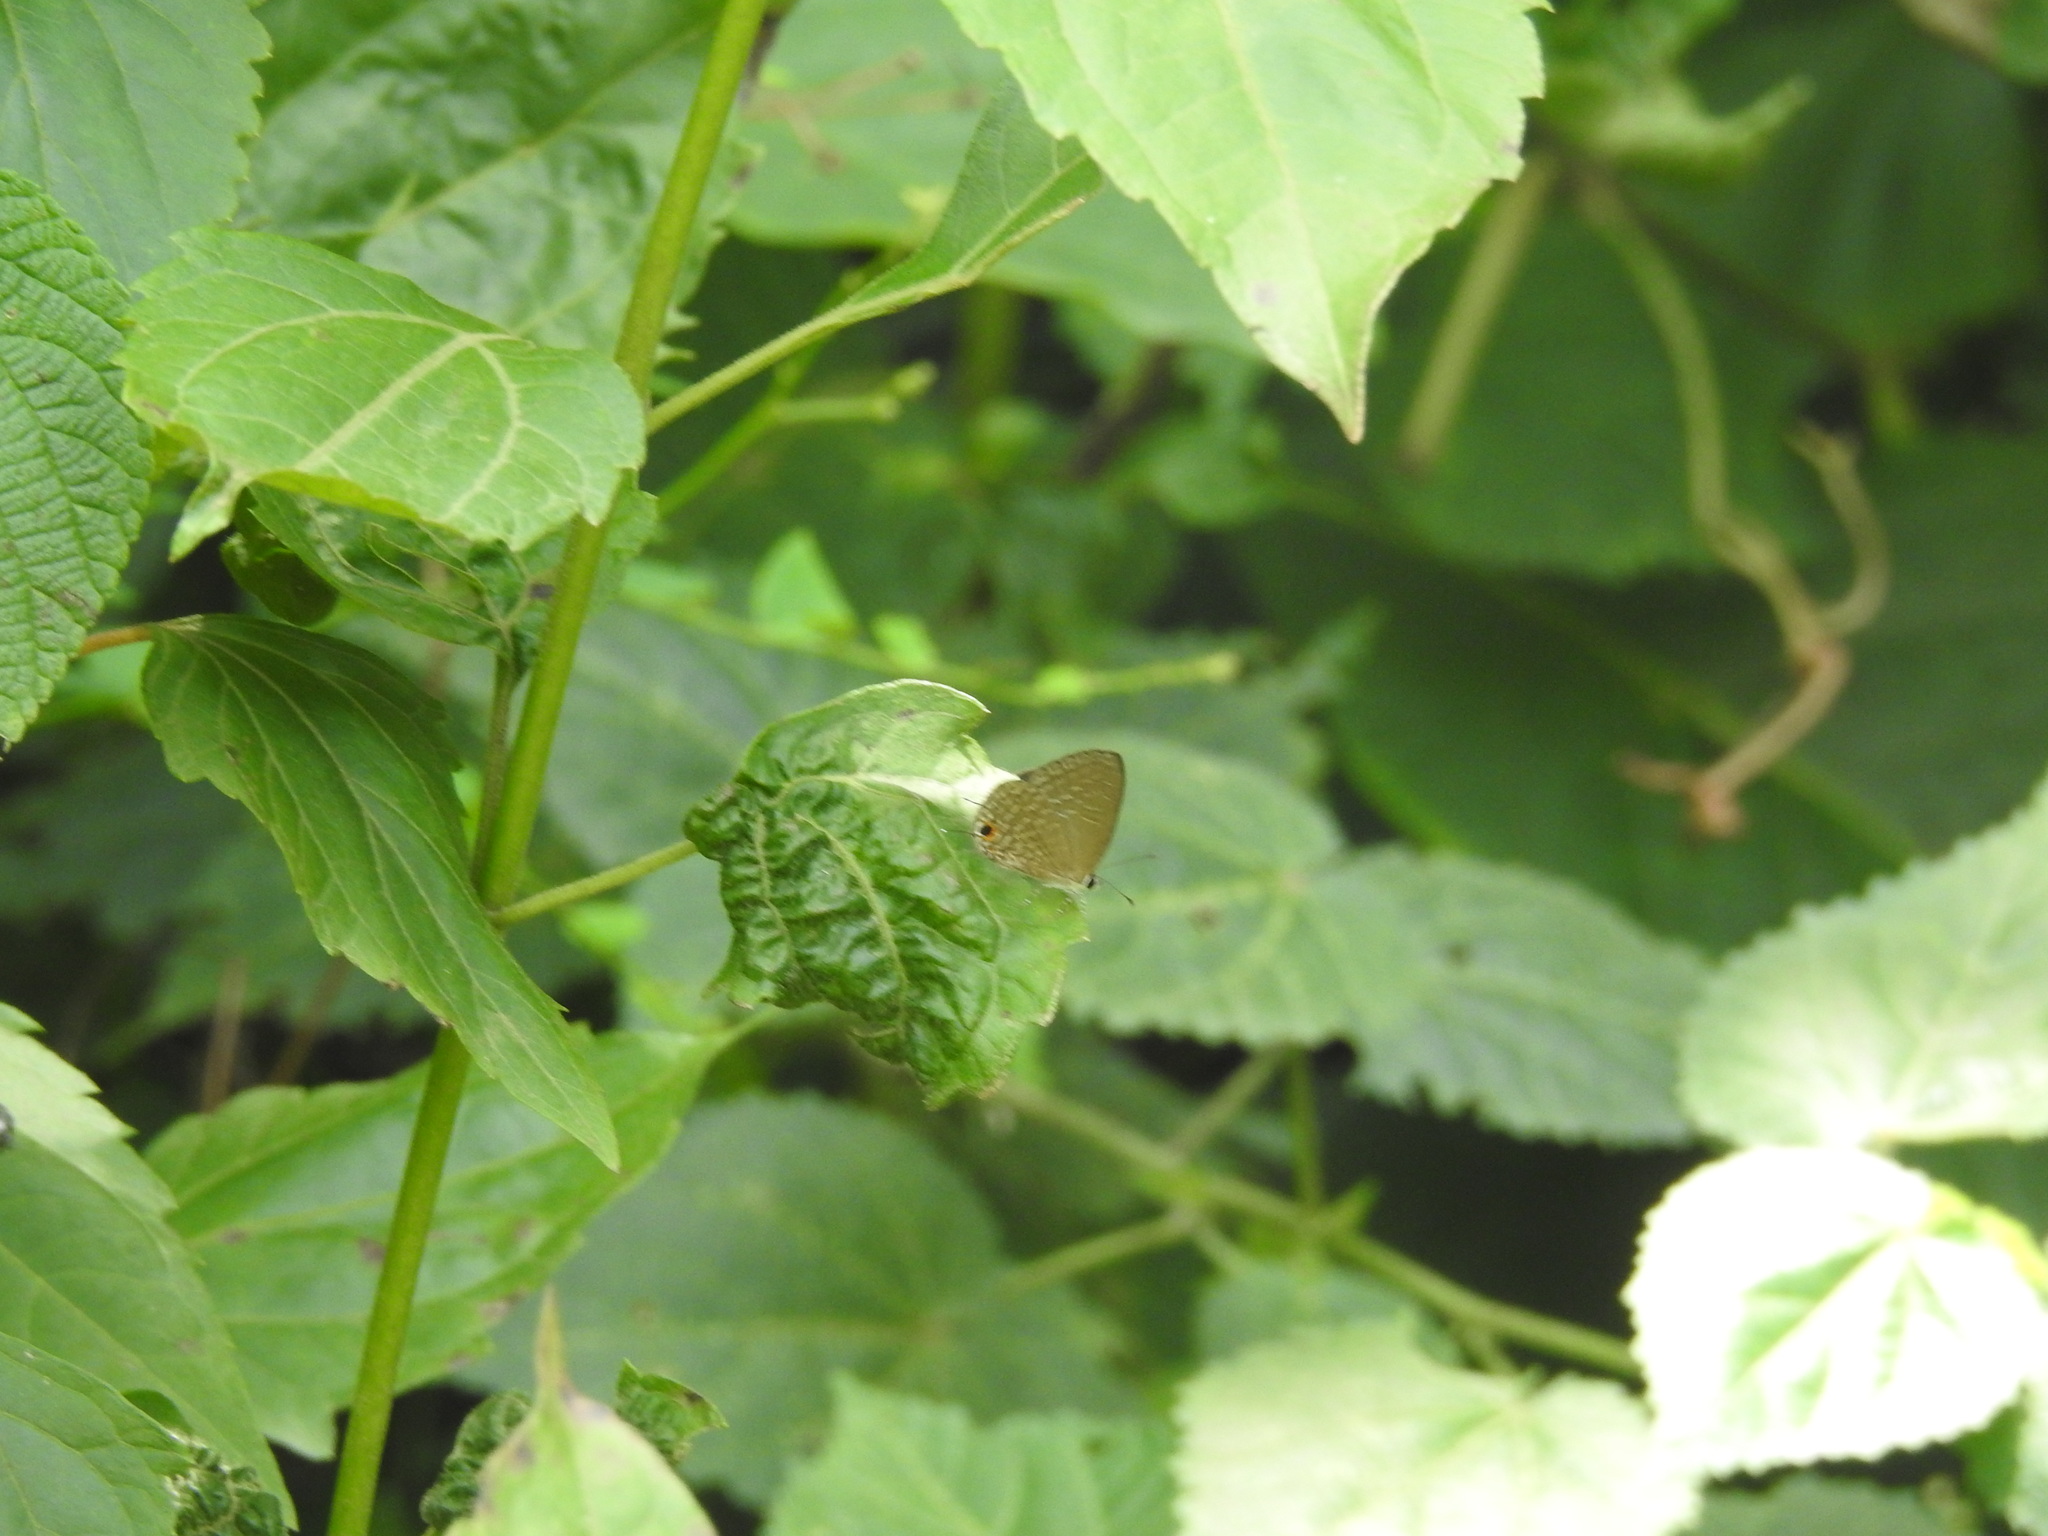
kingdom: Animalia
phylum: Arthropoda
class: Insecta
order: Lepidoptera
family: Lycaenidae
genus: Jamides
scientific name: Jamides bochus
